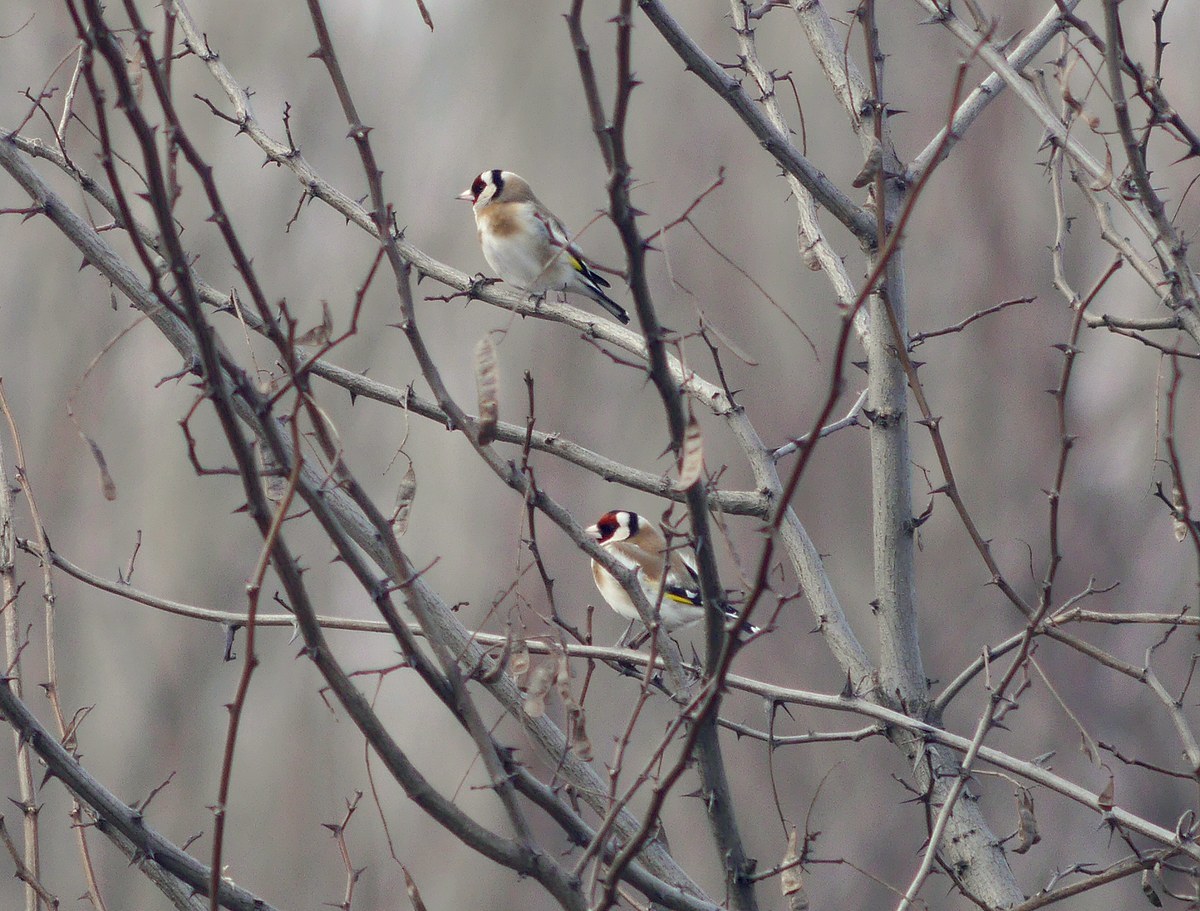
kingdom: Animalia
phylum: Chordata
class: Aves
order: Passeriformes
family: Fringillidae
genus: Carduelis
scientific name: Carduelis carduelis
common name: European goldfinch
